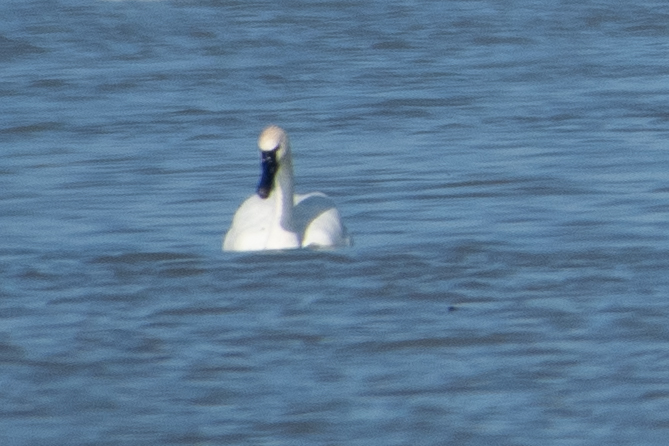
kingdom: Animalia
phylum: Chordata
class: Aves
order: Anseriformes
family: Anatidae
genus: Cygnus
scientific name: Cygnus columbianus
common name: Tundra swan
